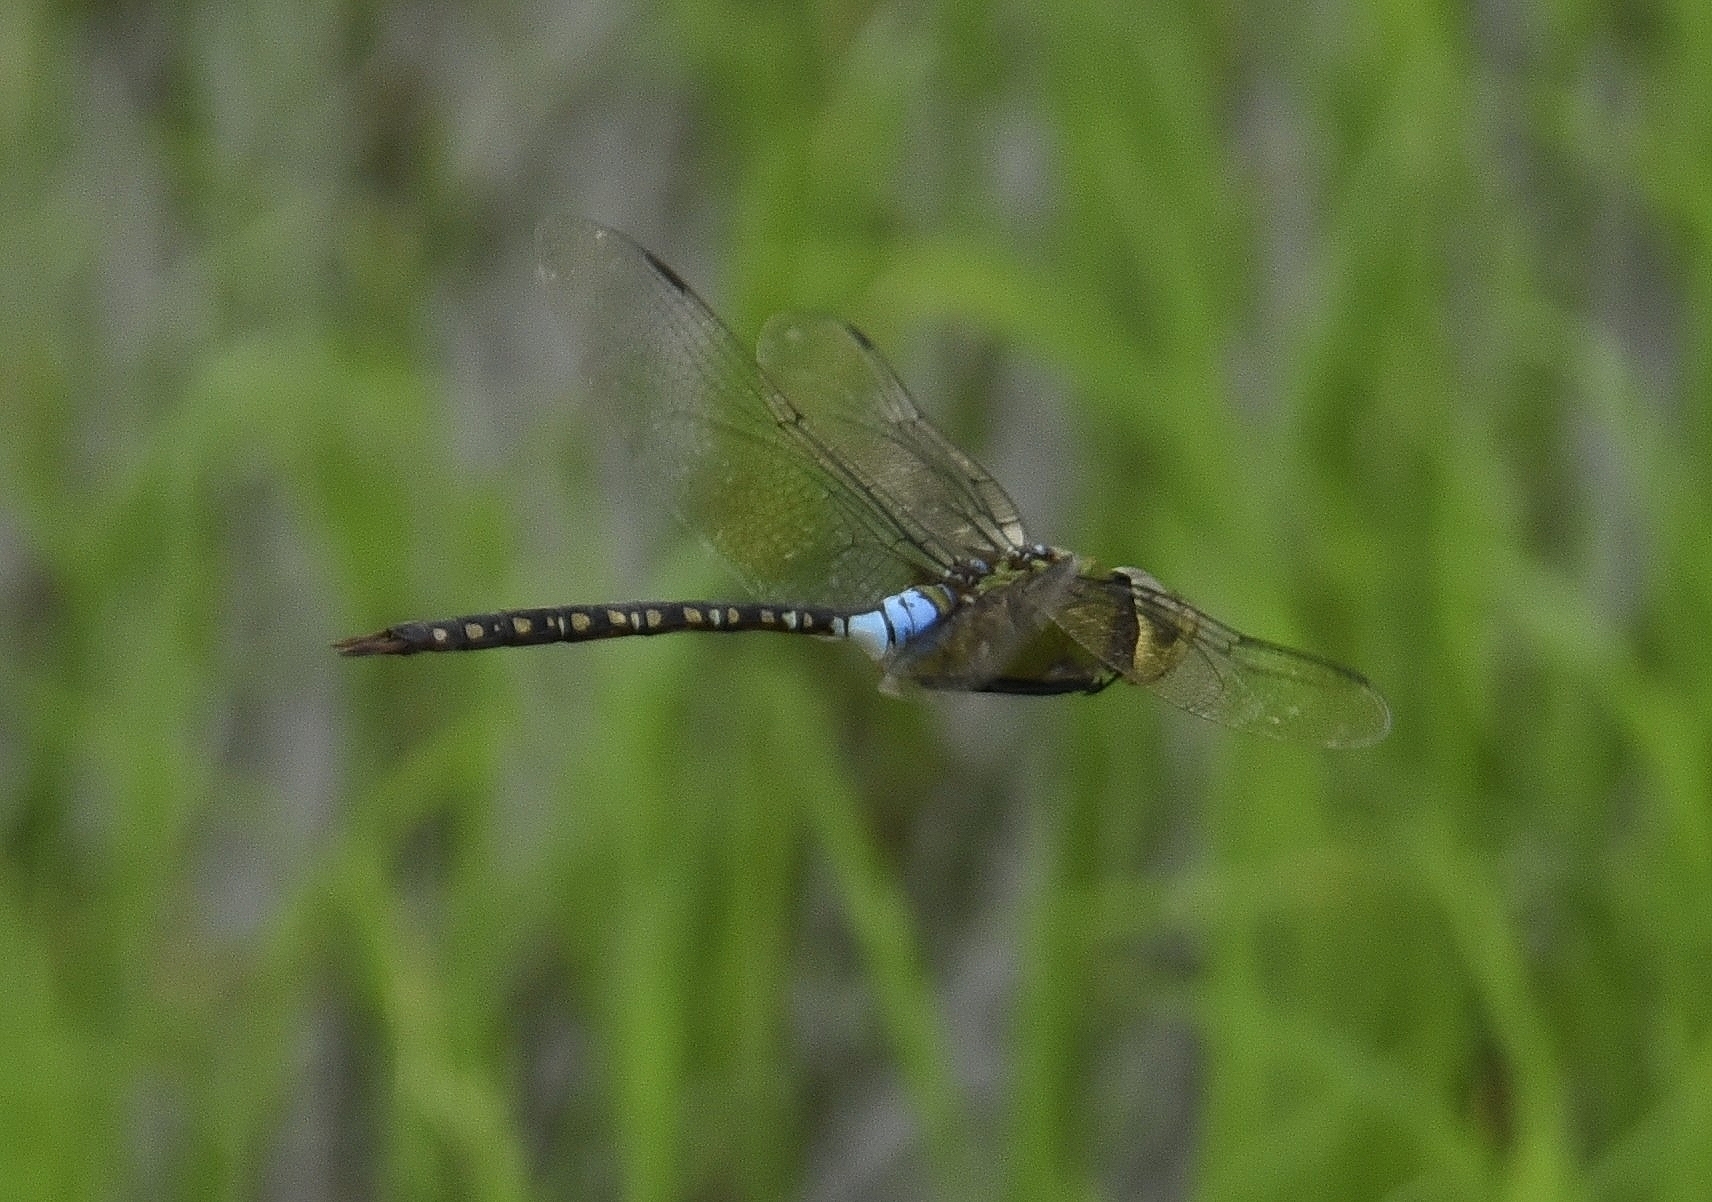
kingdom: Animalia
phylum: Arthropoda
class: Insecta
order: Odonata
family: Aeshnidae
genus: Anax
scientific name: Anax guttatus
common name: Emperor
